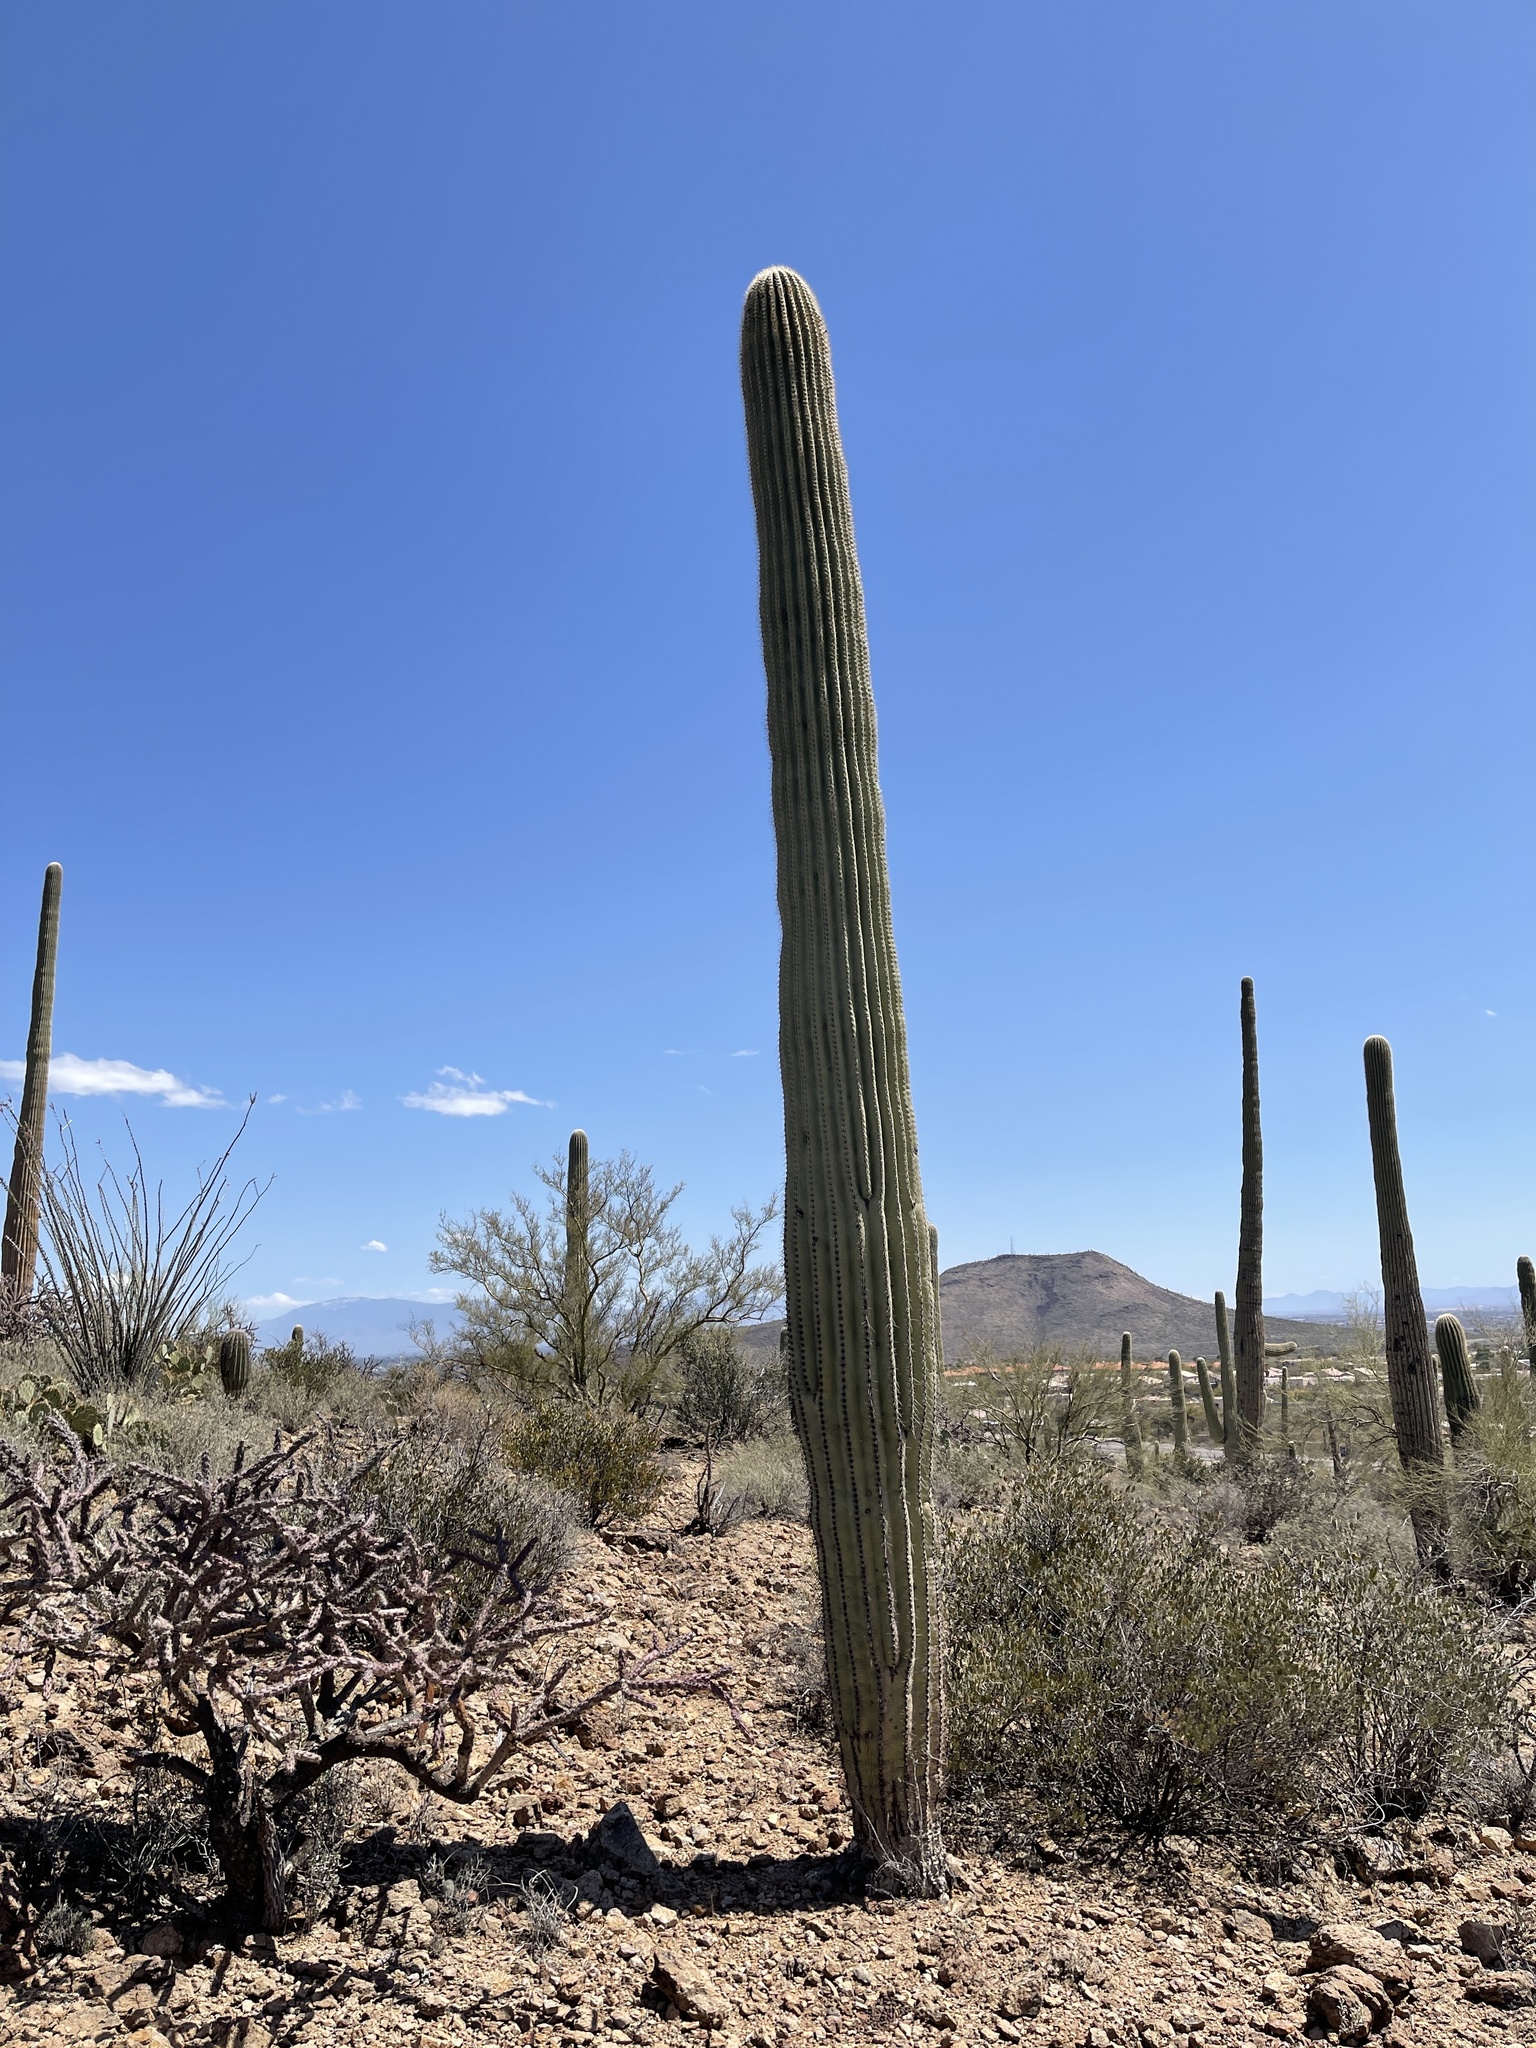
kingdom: Plantae
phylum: Tracheophyta
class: Magnoliopsida
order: Caryophyllales
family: Cactaceae
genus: Carnegiea
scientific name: Carnegiea gigantea
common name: Saguaro
